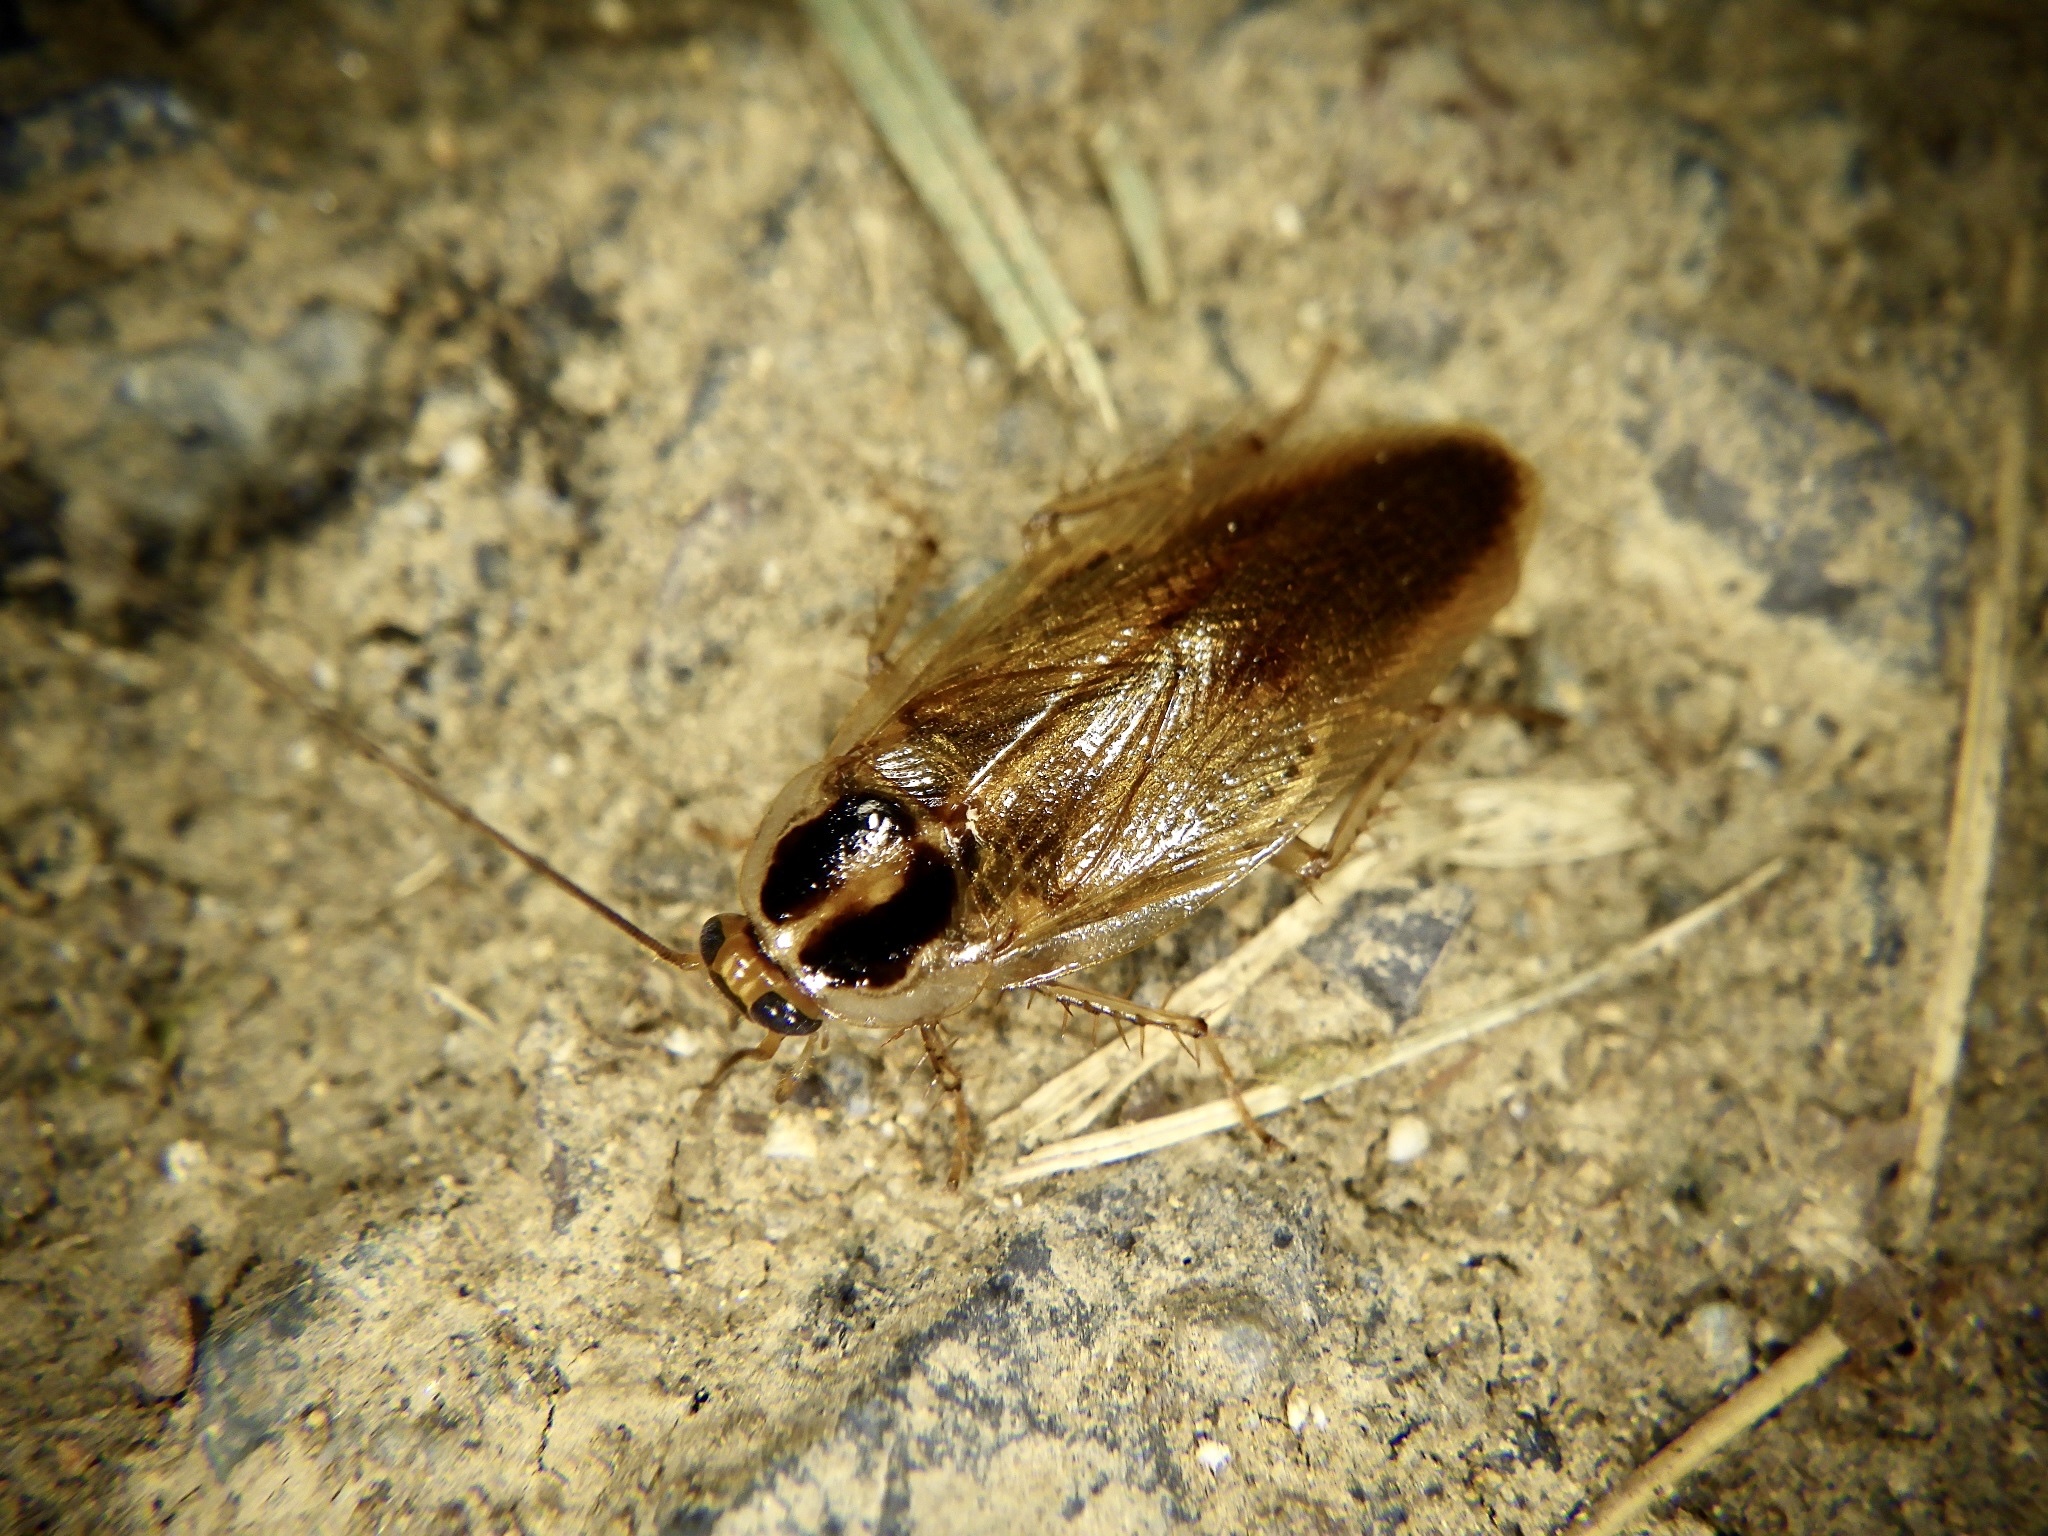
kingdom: Animalia
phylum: Arthropoda
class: Insecta
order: Blattodea
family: Ectobiidae
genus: Blattella
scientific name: Blattella nipponica
